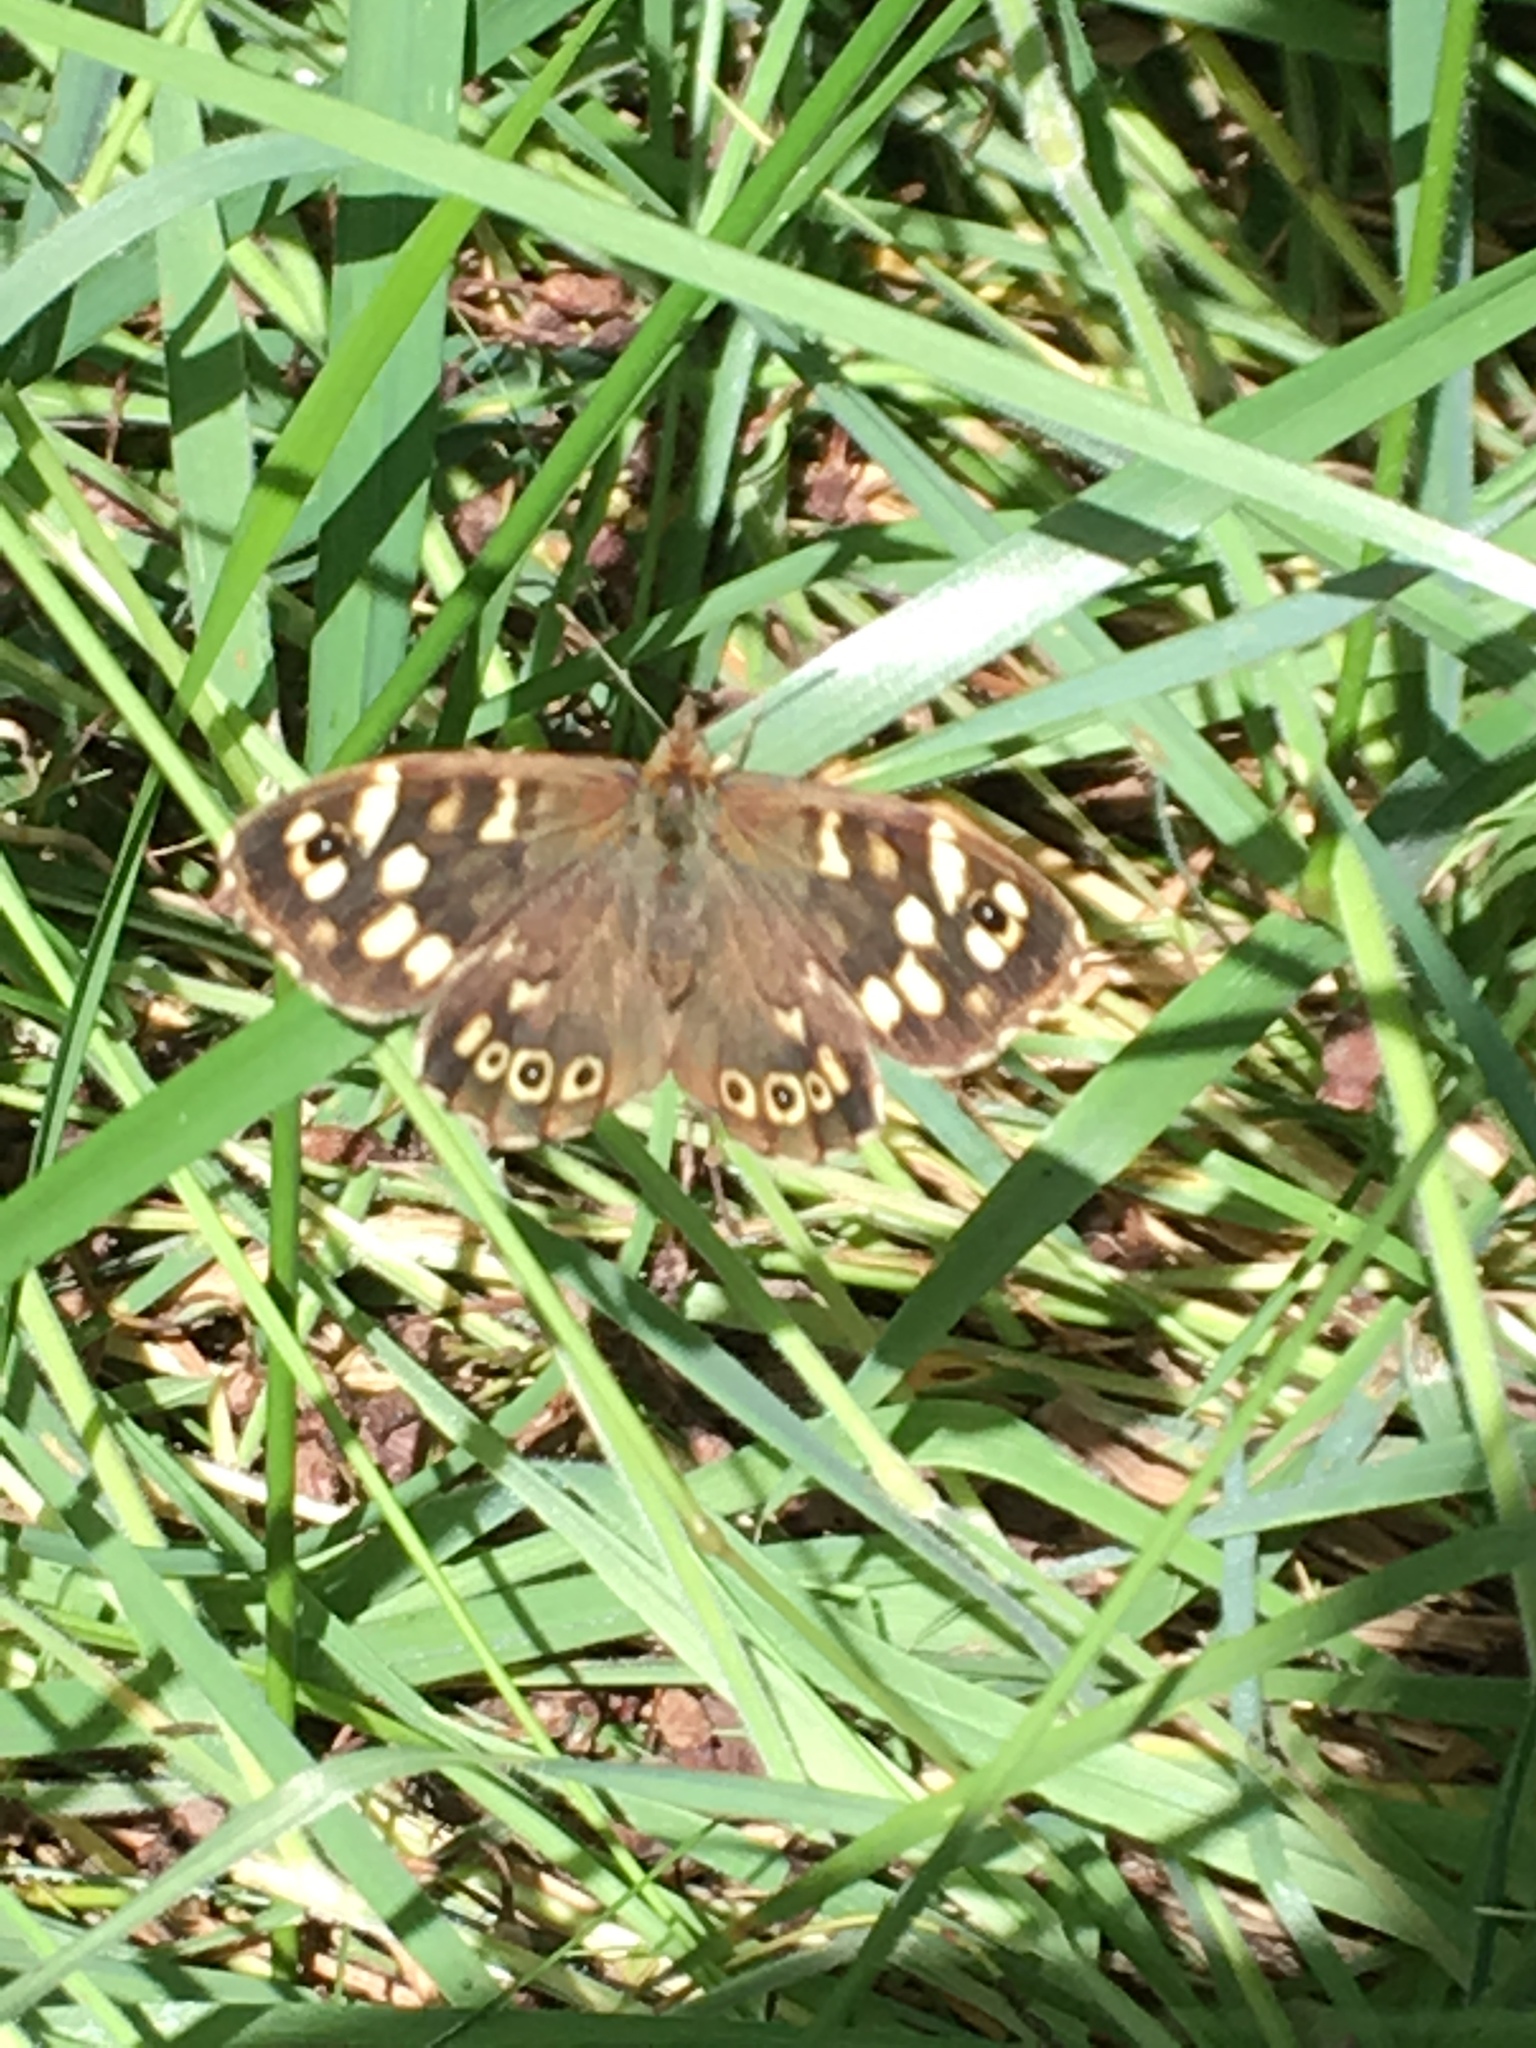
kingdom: Animalia
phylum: Arthropoda
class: Insecta
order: Lepidoptera
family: Nymphalidae
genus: Pararge
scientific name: Pararge aegeria
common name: Speckled wood
